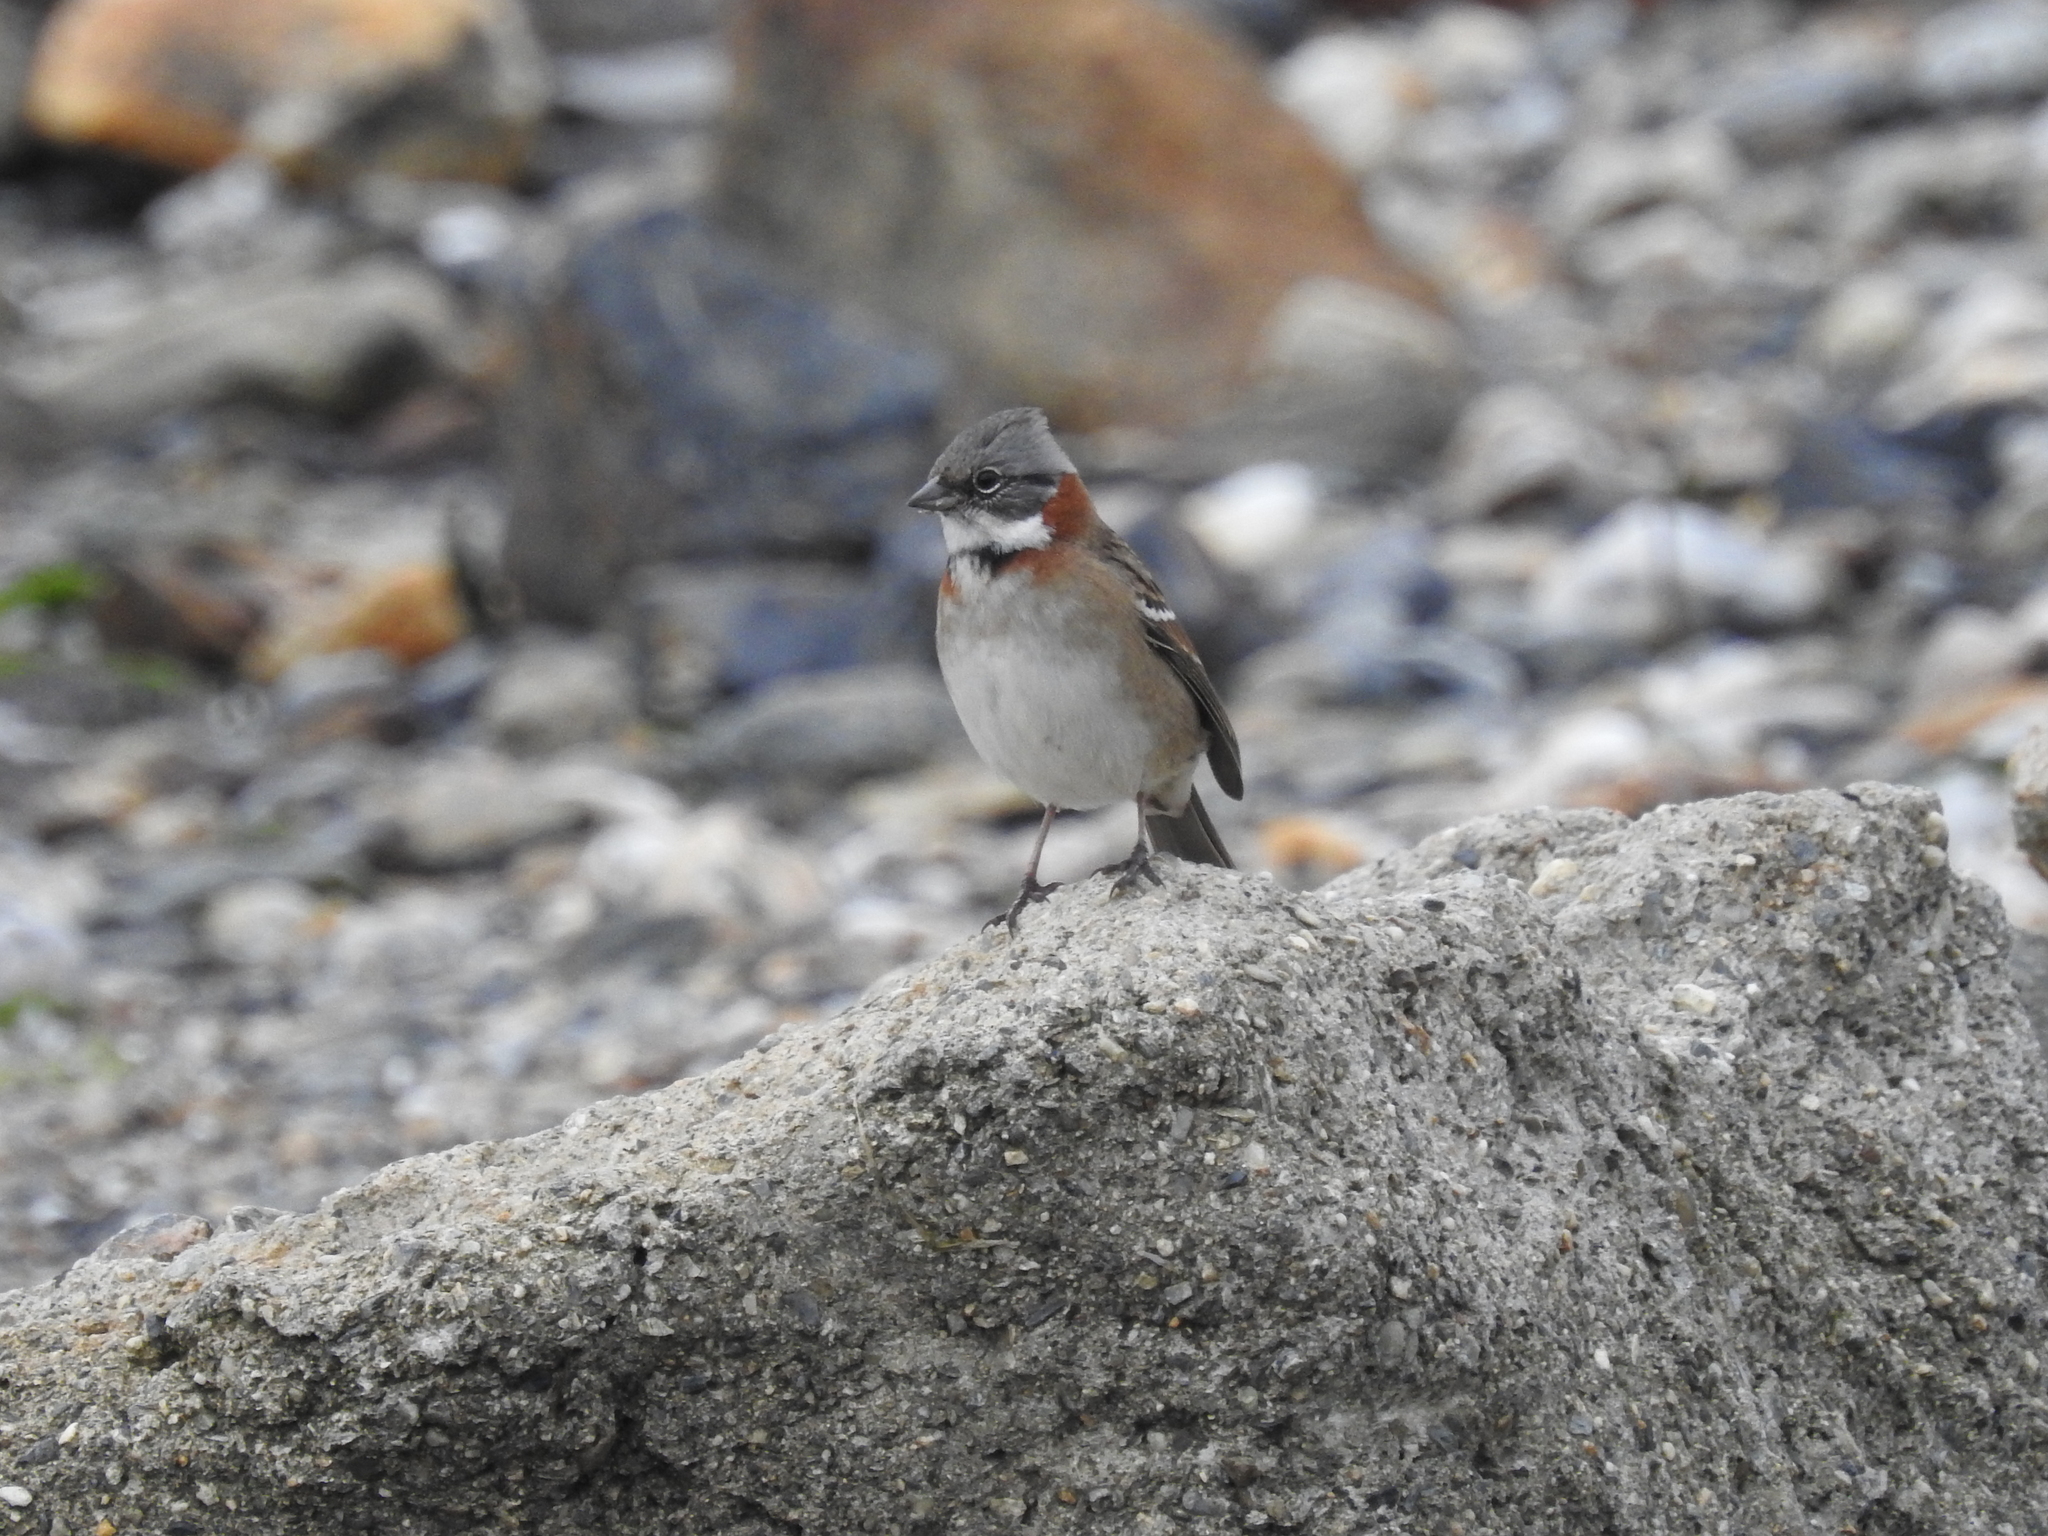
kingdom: Animalia
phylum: Chordata
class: Aves
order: Passeriformes
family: Passerellidae
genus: Zonotrichia
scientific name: Zonotrichia capensis
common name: Rufous-collared sparrow
